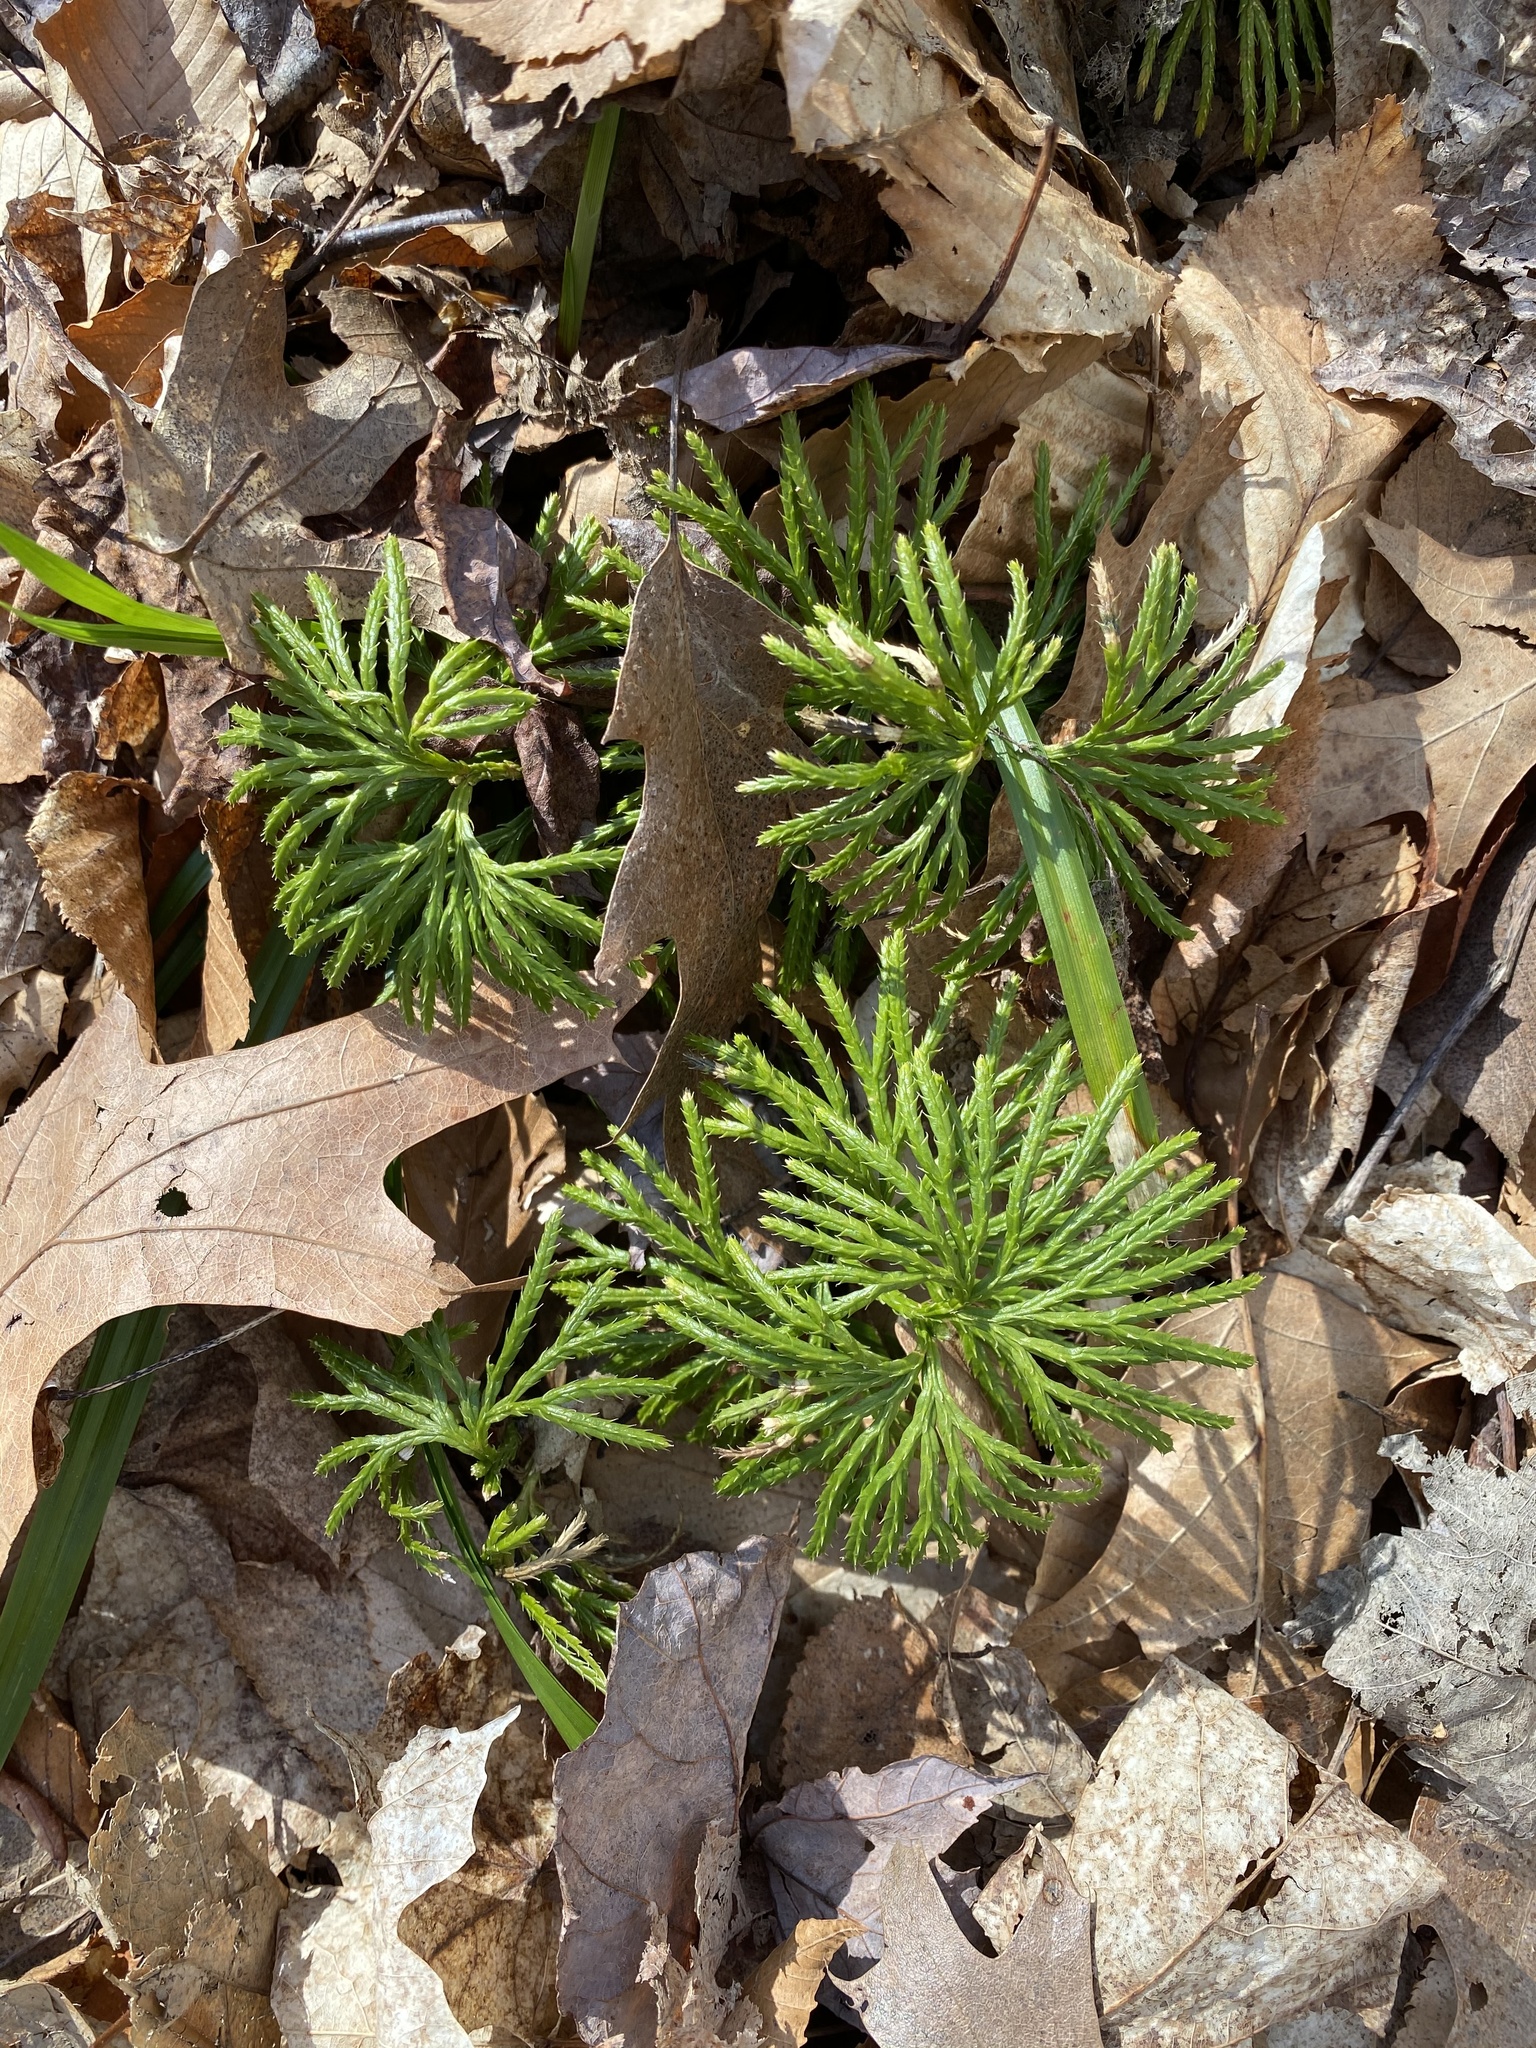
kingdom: Plantae
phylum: Tracheophyta
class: Lycopodiopsida
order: Lycopodiales
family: Lycopodiaceae
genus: Diphasiastrum
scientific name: Diphasiastrum digitatum
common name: Southern running-pine
